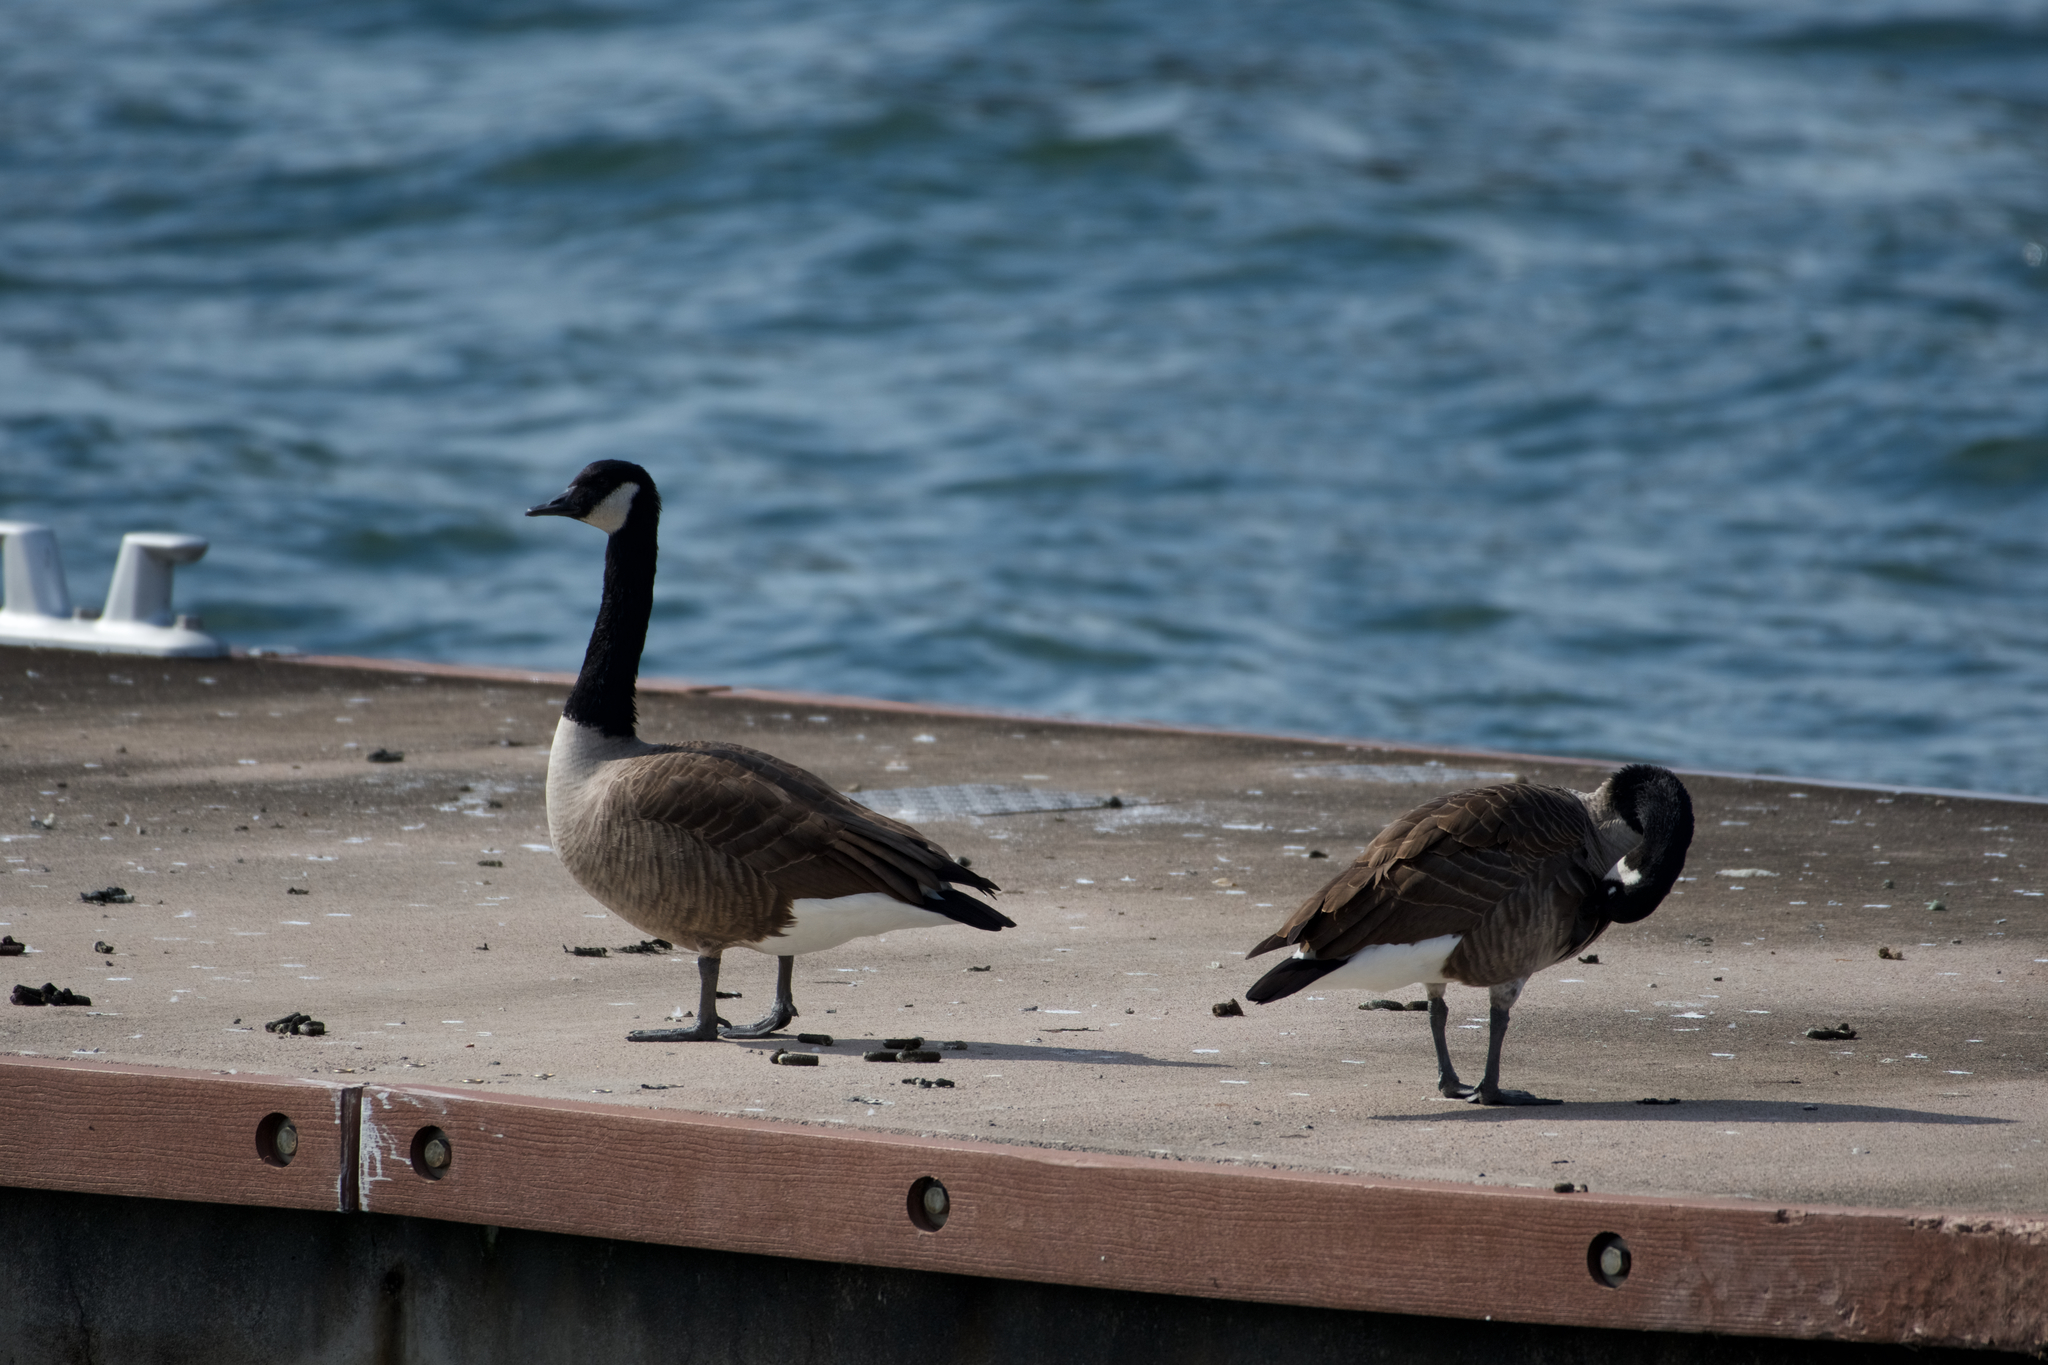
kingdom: Animalia
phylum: Chordata
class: Aves
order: Anseriformes
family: Anatidae
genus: Branta
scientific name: Branta canadensis
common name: Canada goose
